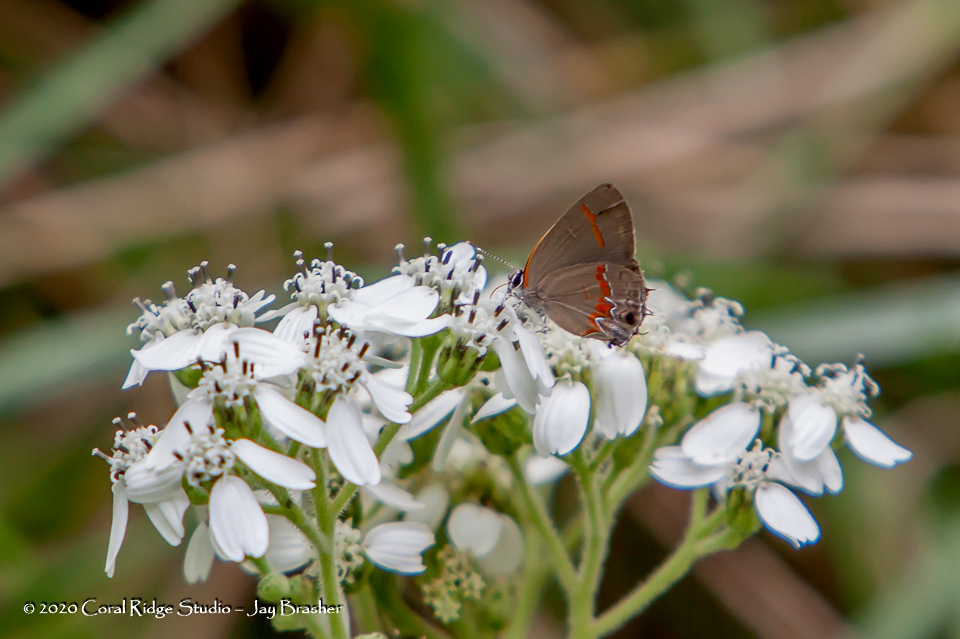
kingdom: Animalia
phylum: Arthropoda
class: Insecta
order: Lepidoptera
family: Lycaenidae
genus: Calycopis
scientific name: Calycopis cecrops
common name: Red-banded hairstreak
